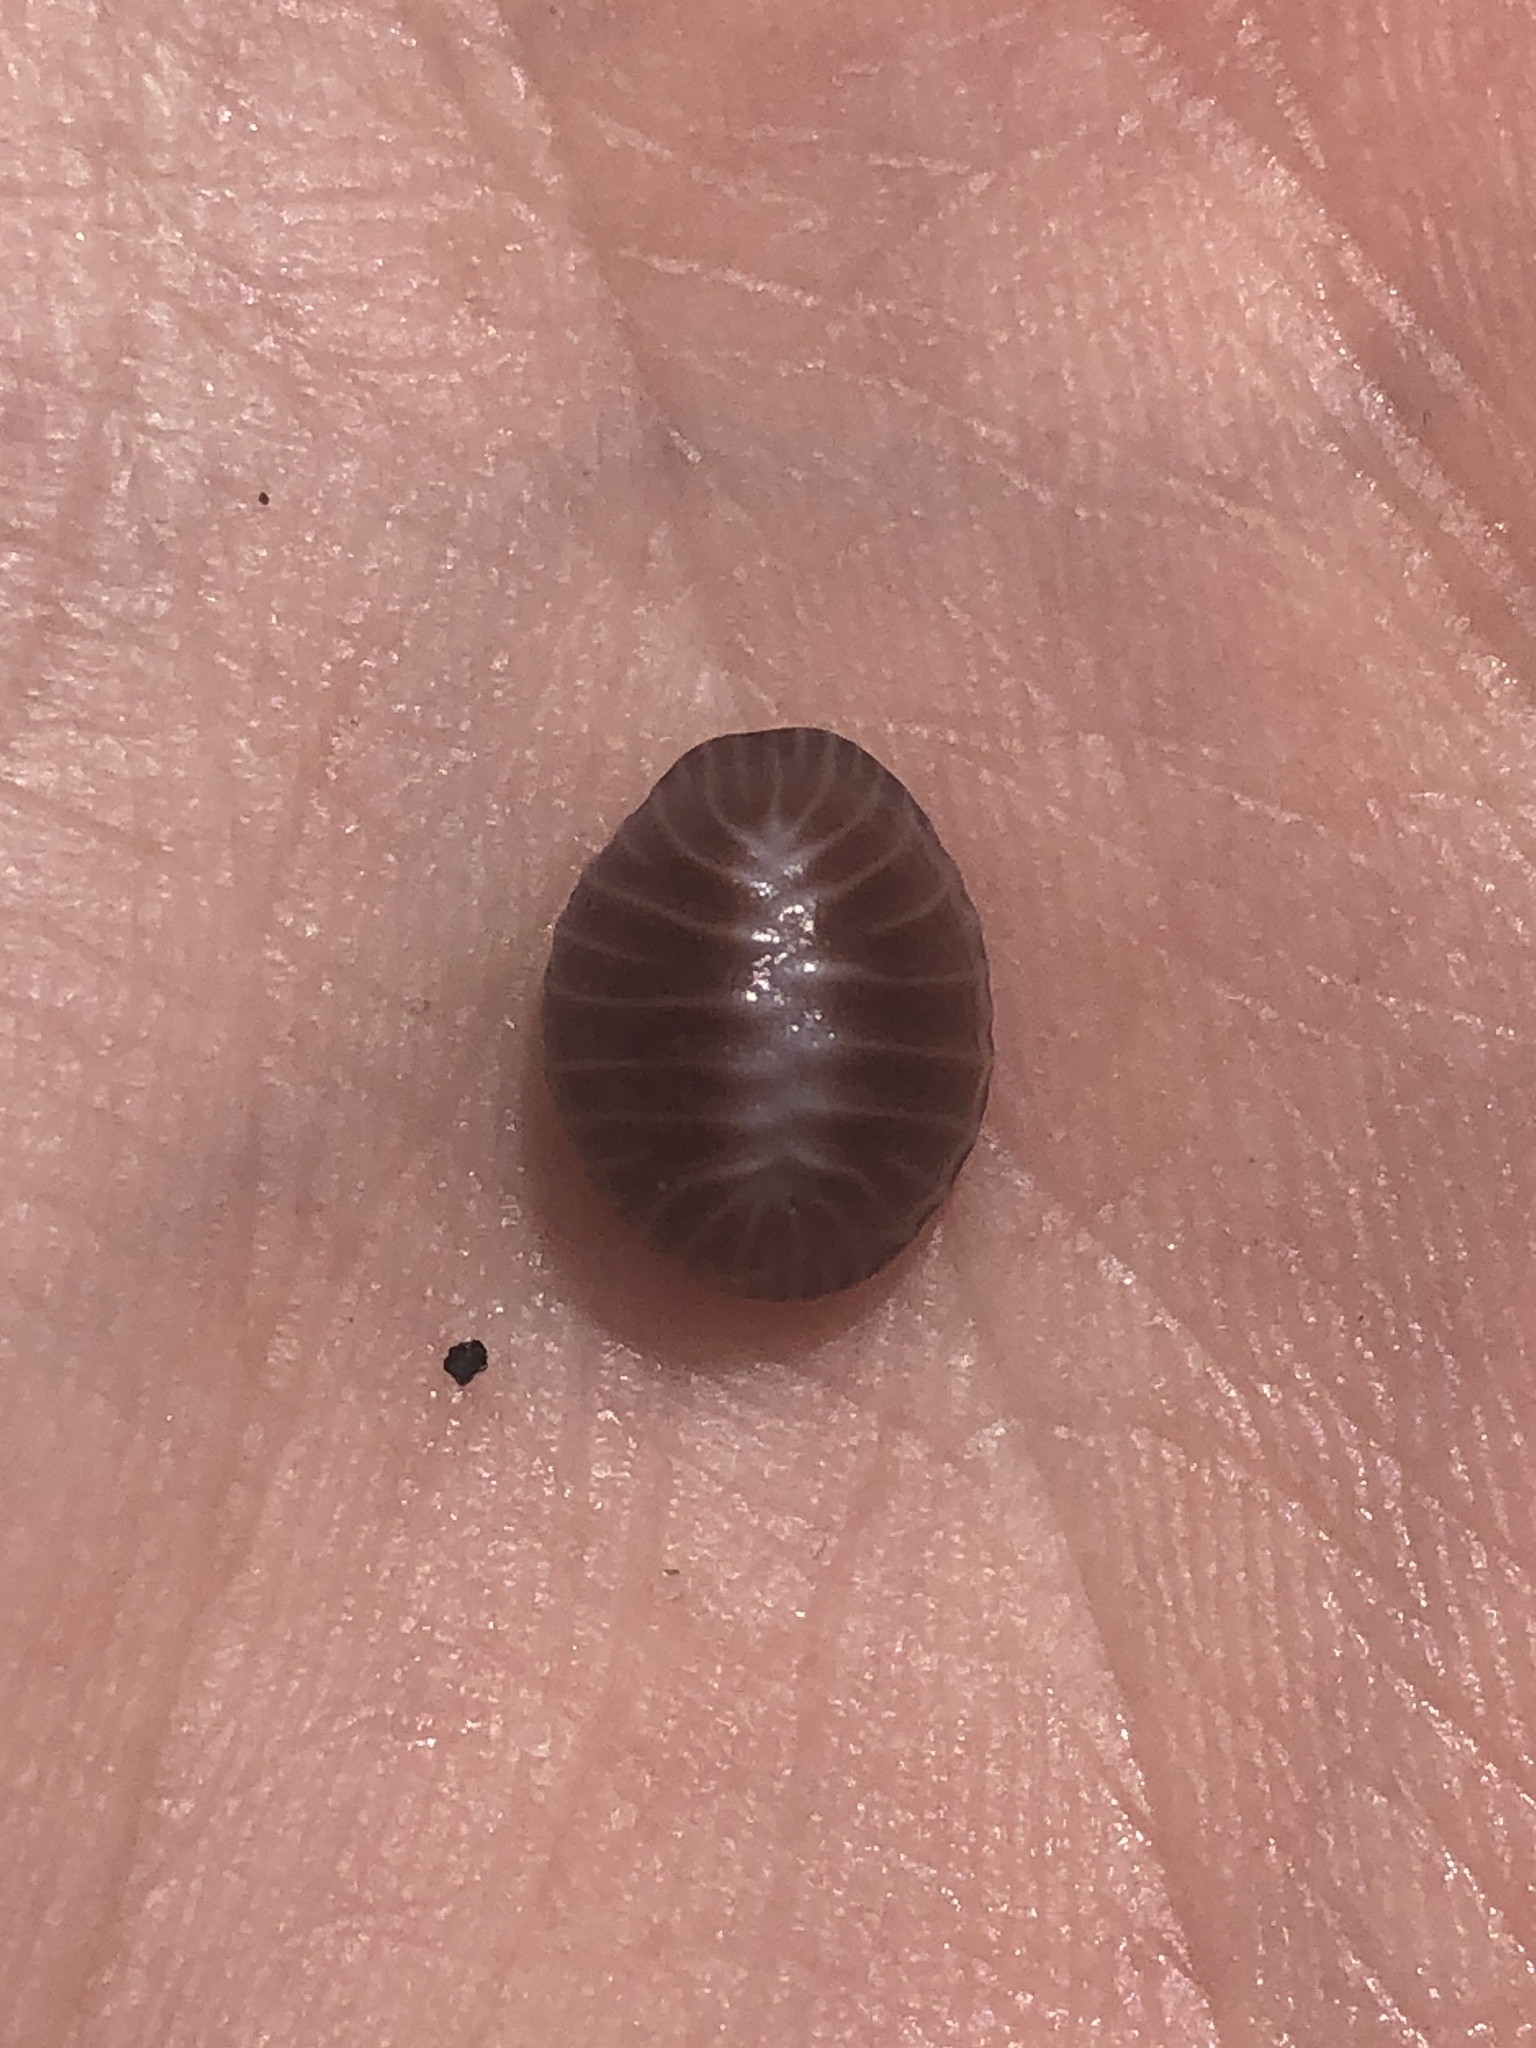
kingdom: Animalia
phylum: Mollusca
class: Gastropoda
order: Littorinimorpha
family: Triviidae
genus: Pseudopusula
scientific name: Pseudopusula californiana
